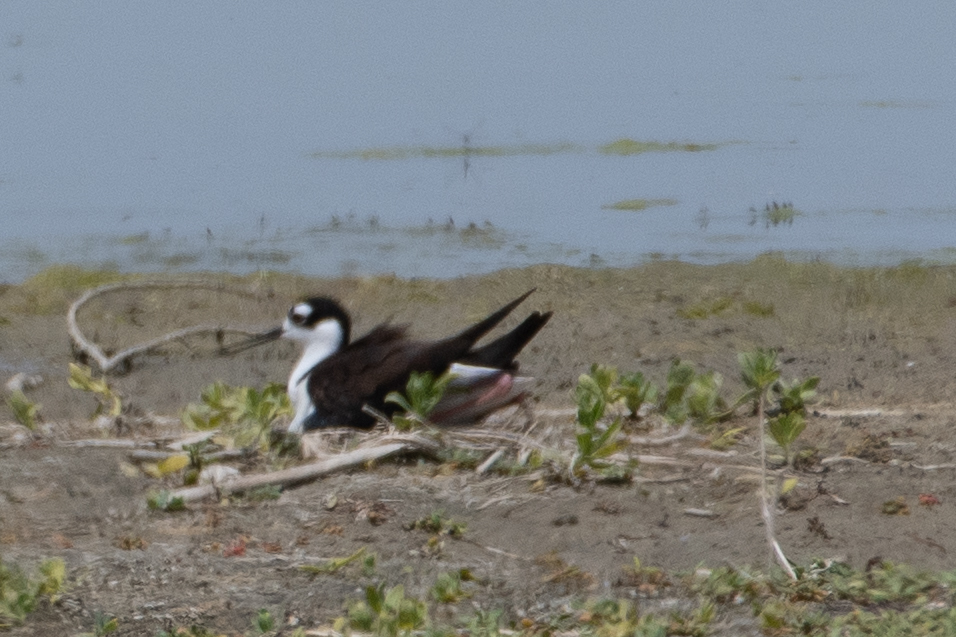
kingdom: Animalia
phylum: Chordata
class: Aves
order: Charadriiformes
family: Recurvirostridae
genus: Himantopus
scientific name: Himantopus mexicanus
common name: Black-necked stilt
